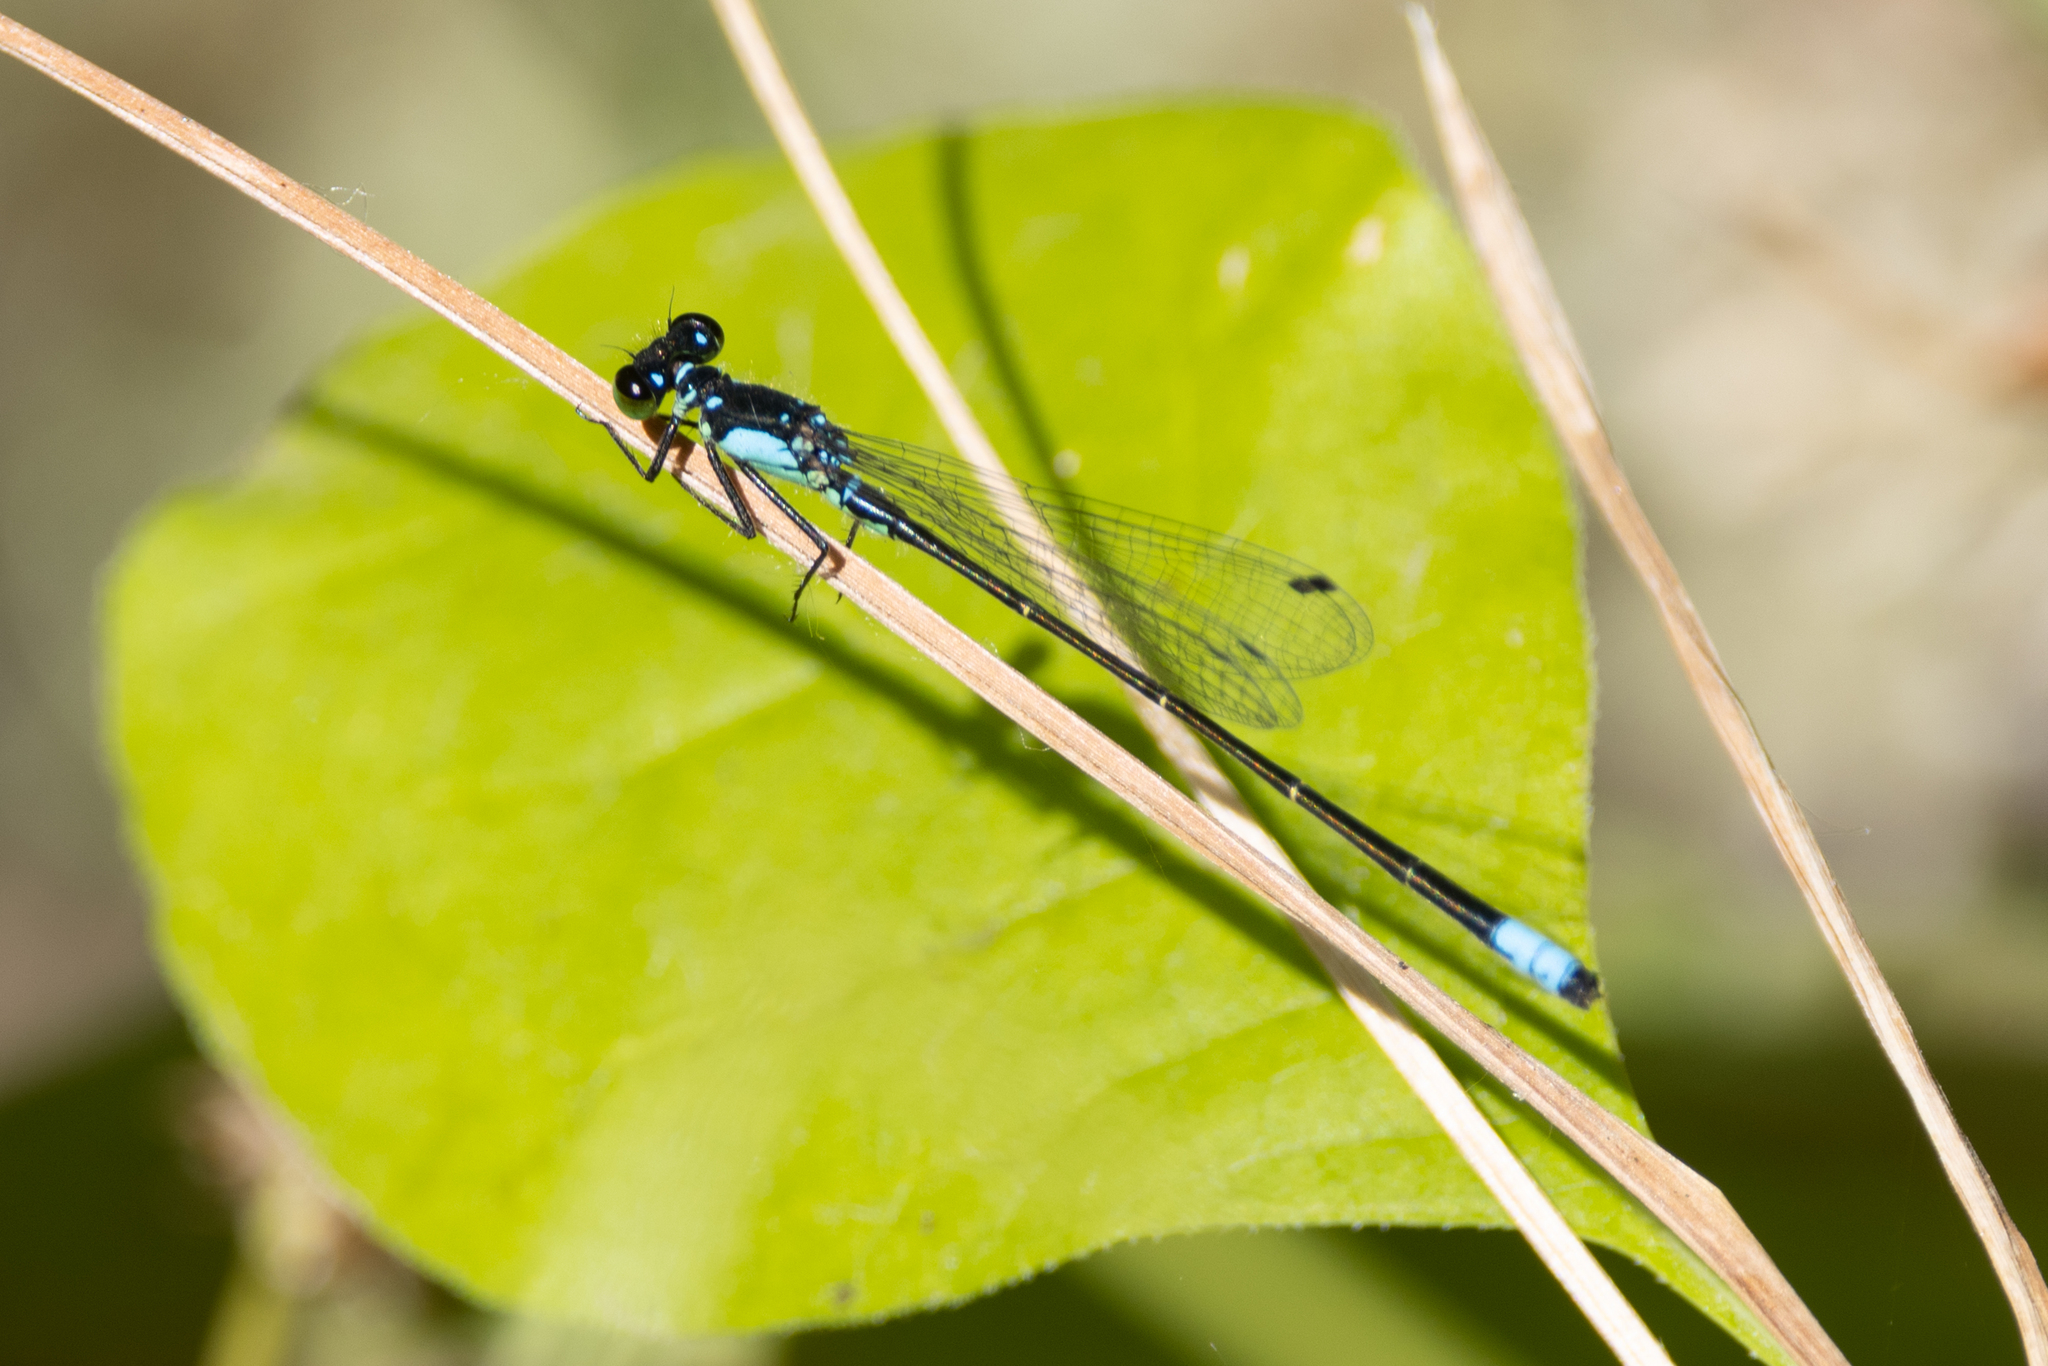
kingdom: Animalia
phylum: Arthropoda
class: Insecta
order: Odonata
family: Coenagrionidae
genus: Ischnura
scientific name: Ischnura cervula
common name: Pacific forktail
